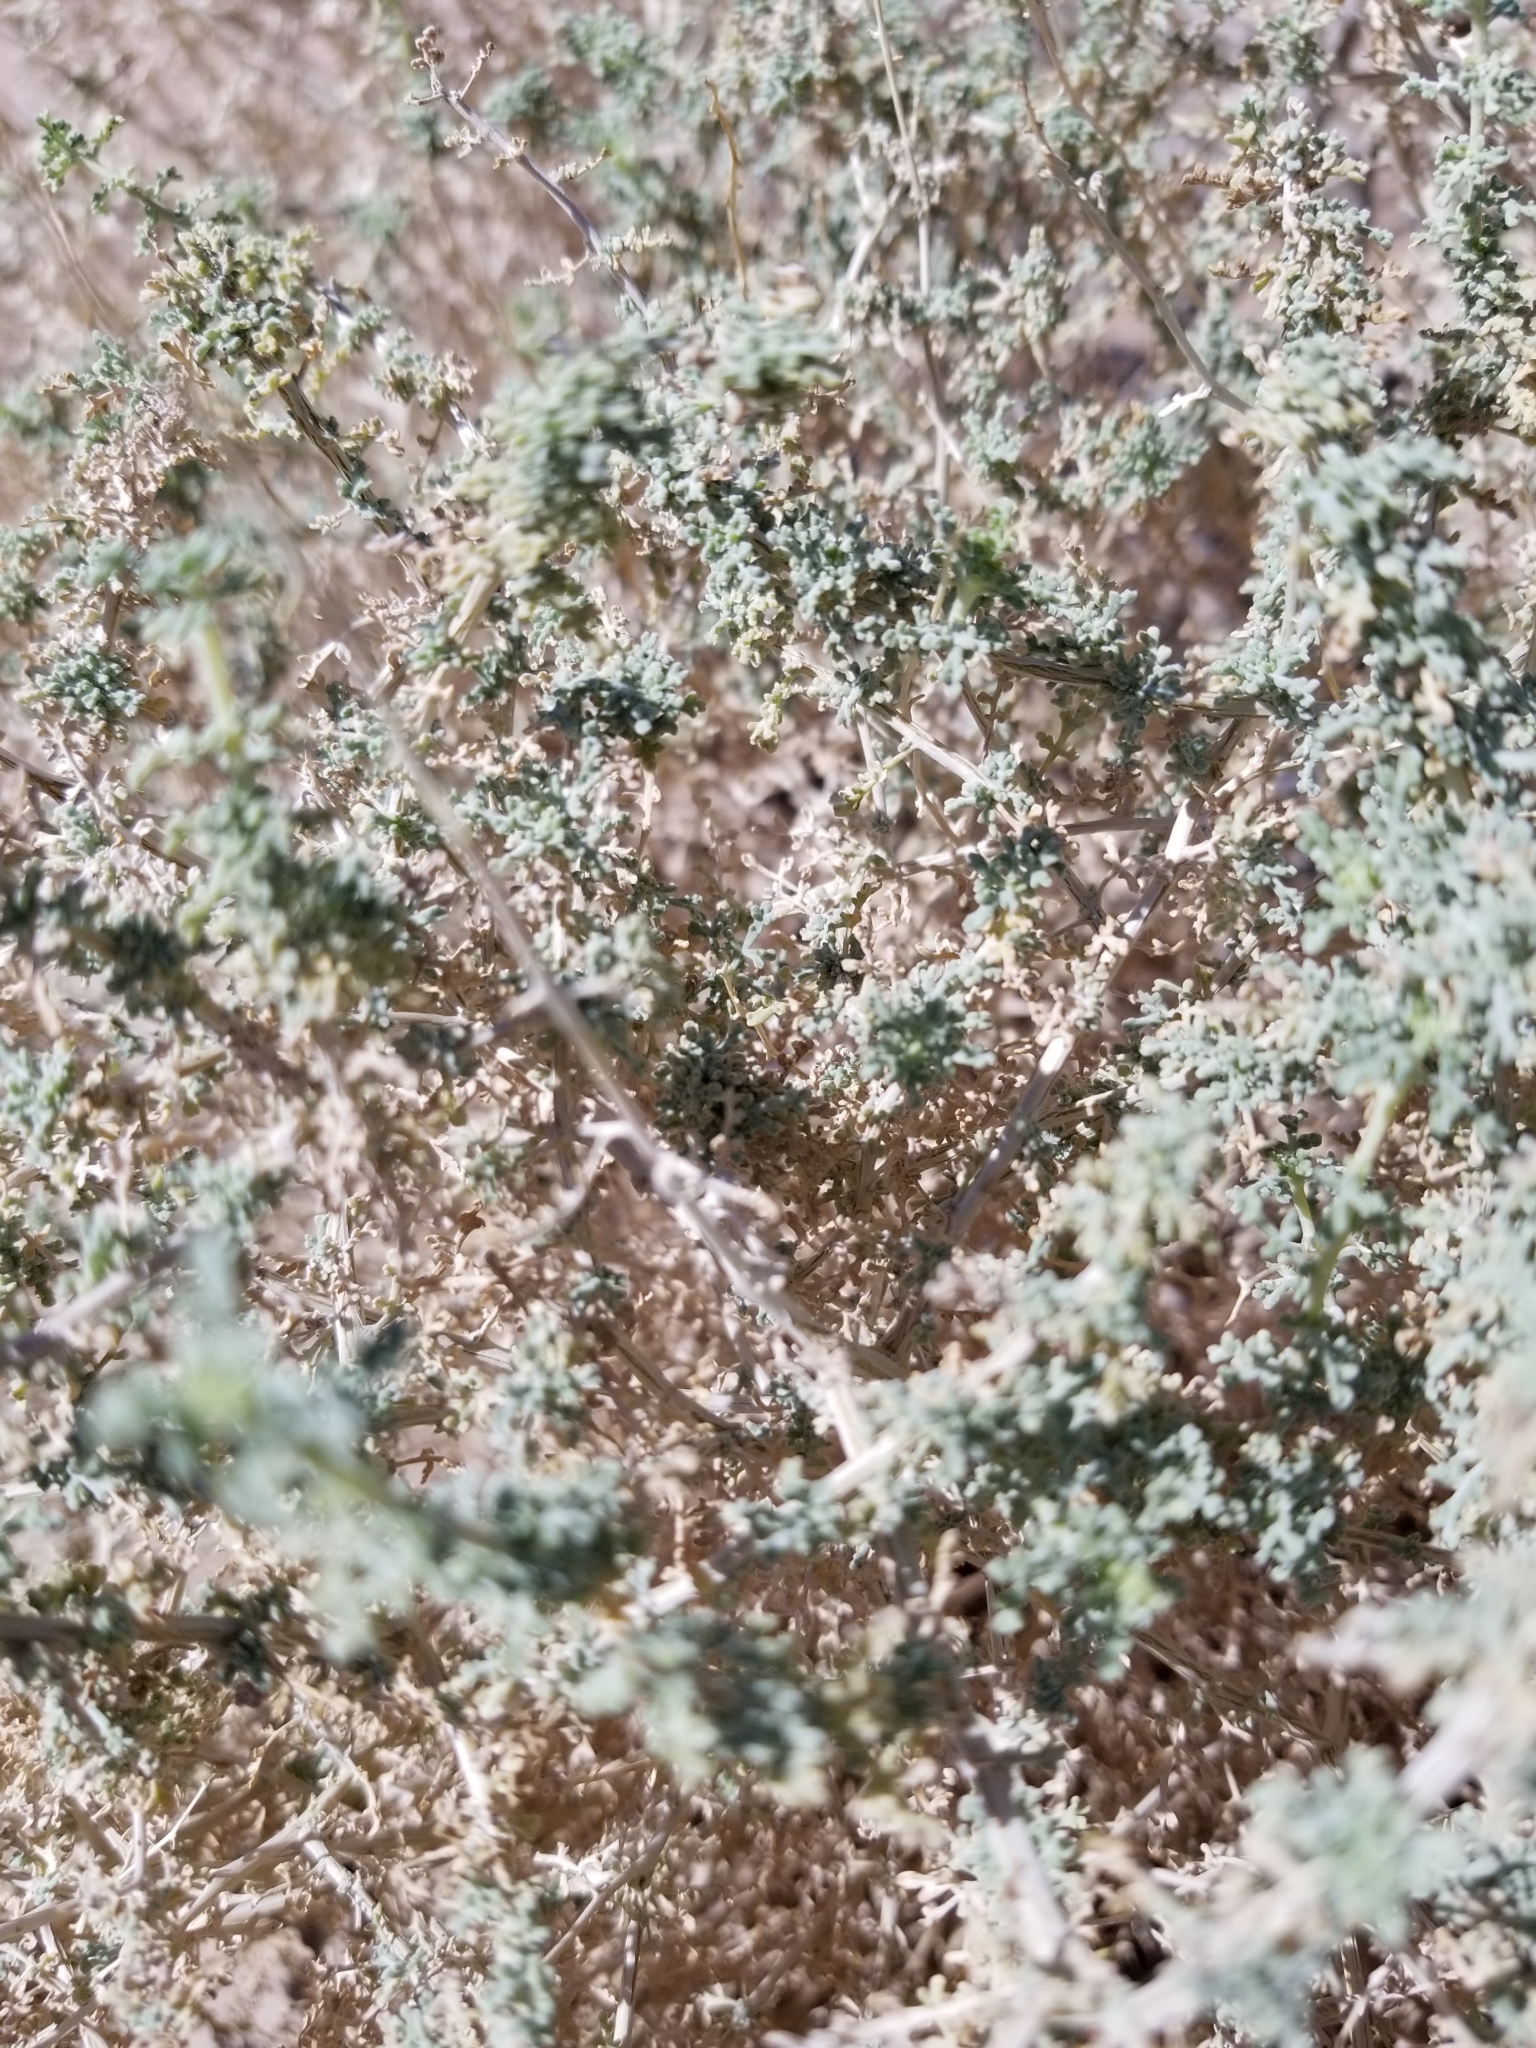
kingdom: Plantae
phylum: Tracheophyta
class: Magnoliopsida
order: Asterales
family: Asteraceae
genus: Ambrosia
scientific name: Ambrosia dumosa
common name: Bur-sage
